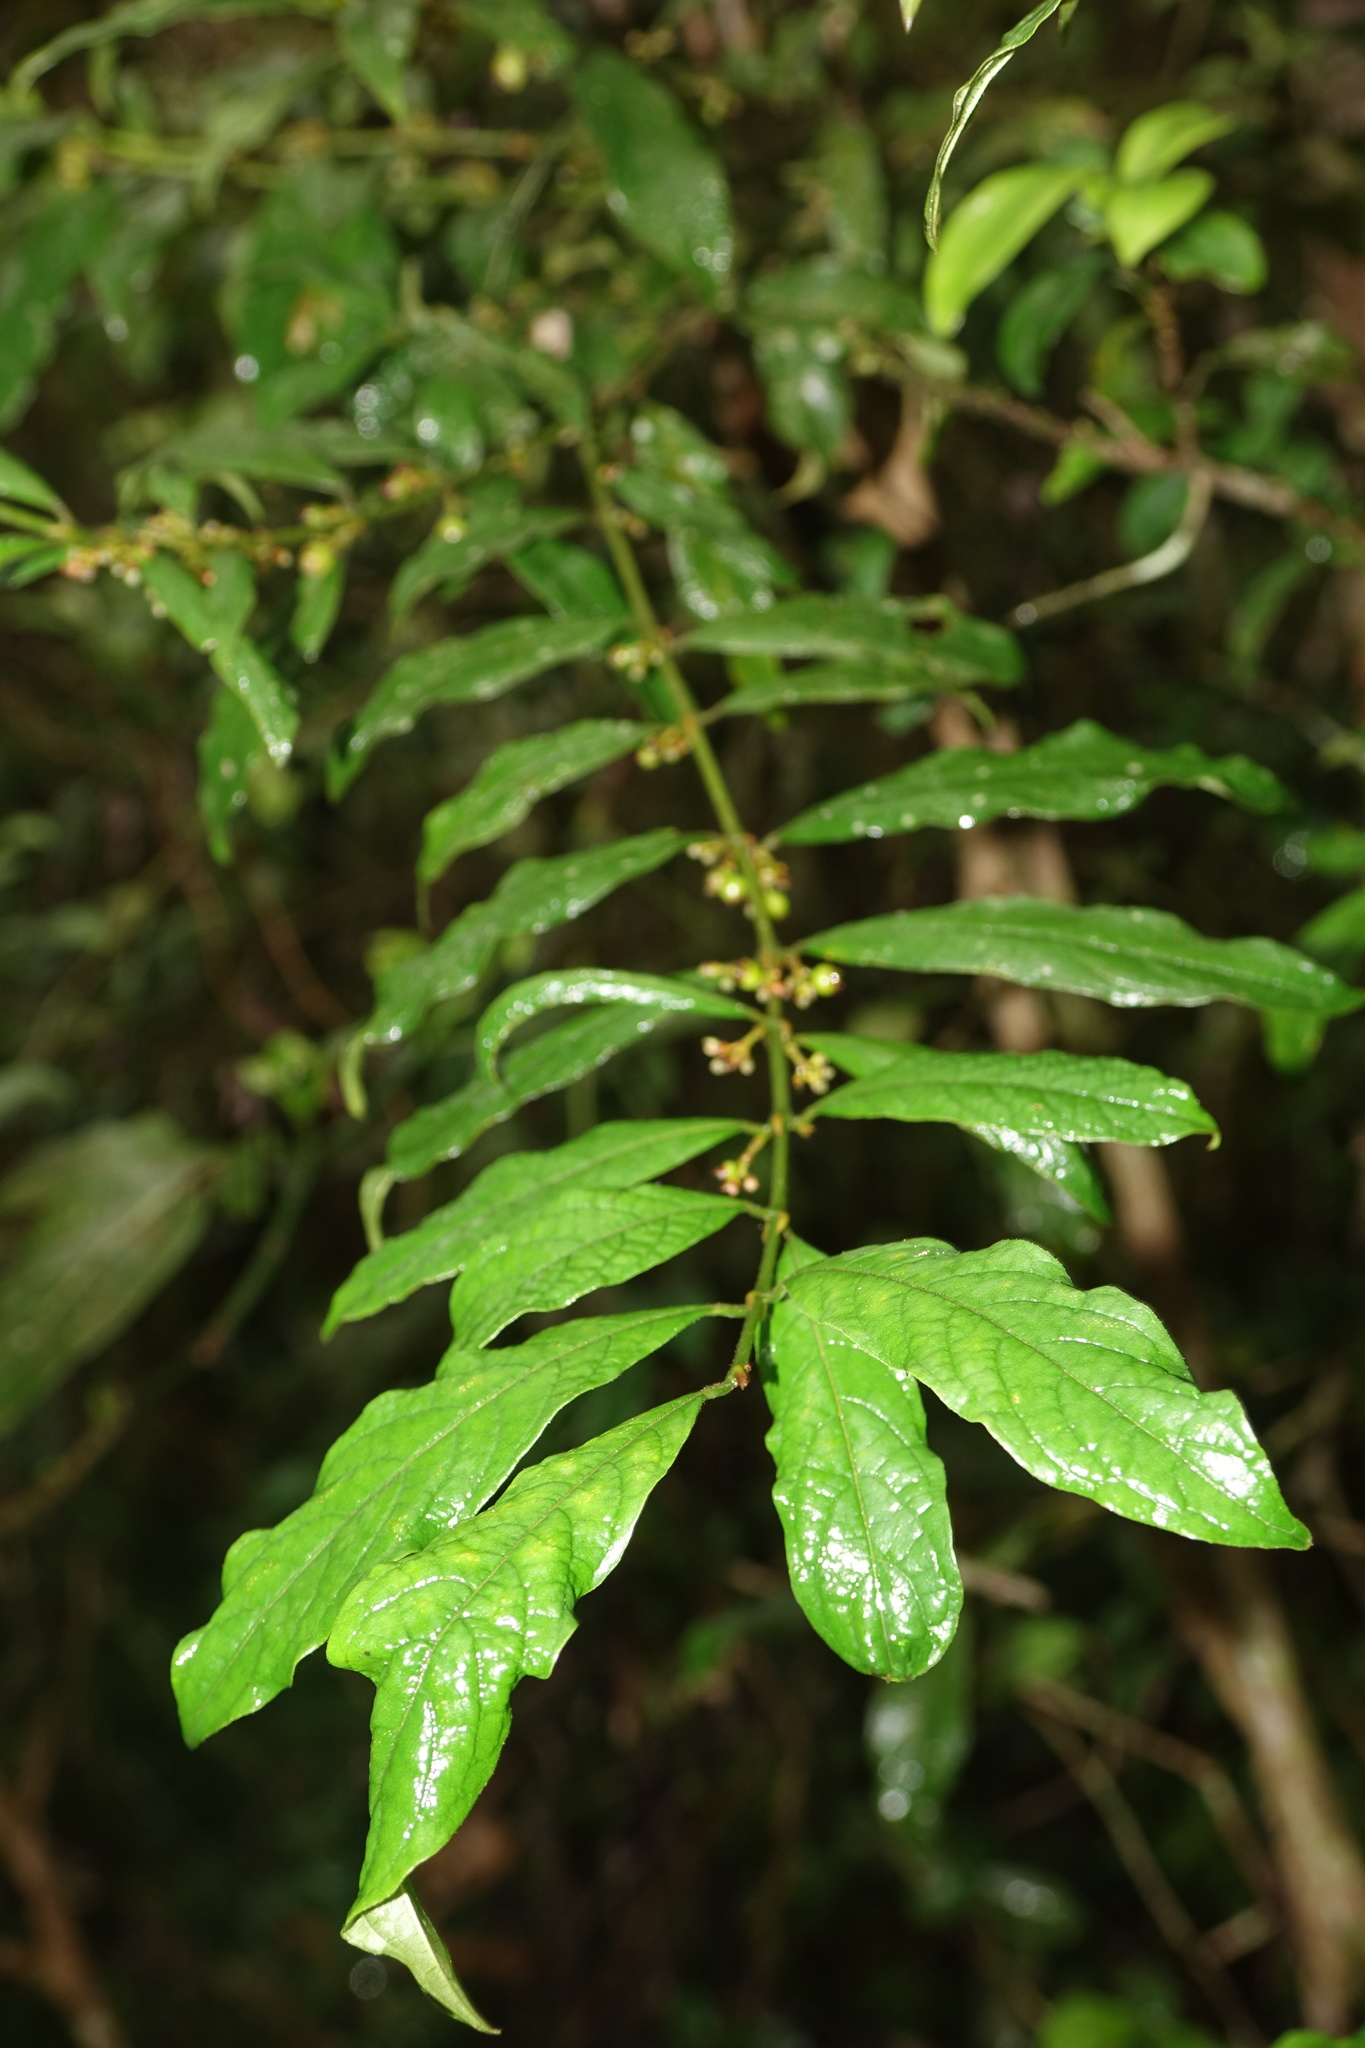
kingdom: Plantae
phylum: Tracheophyta
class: Magnoliopsida
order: Gentianales
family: Rubiaceae
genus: Pauridiantha
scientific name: Pauridiantha paucinervis
